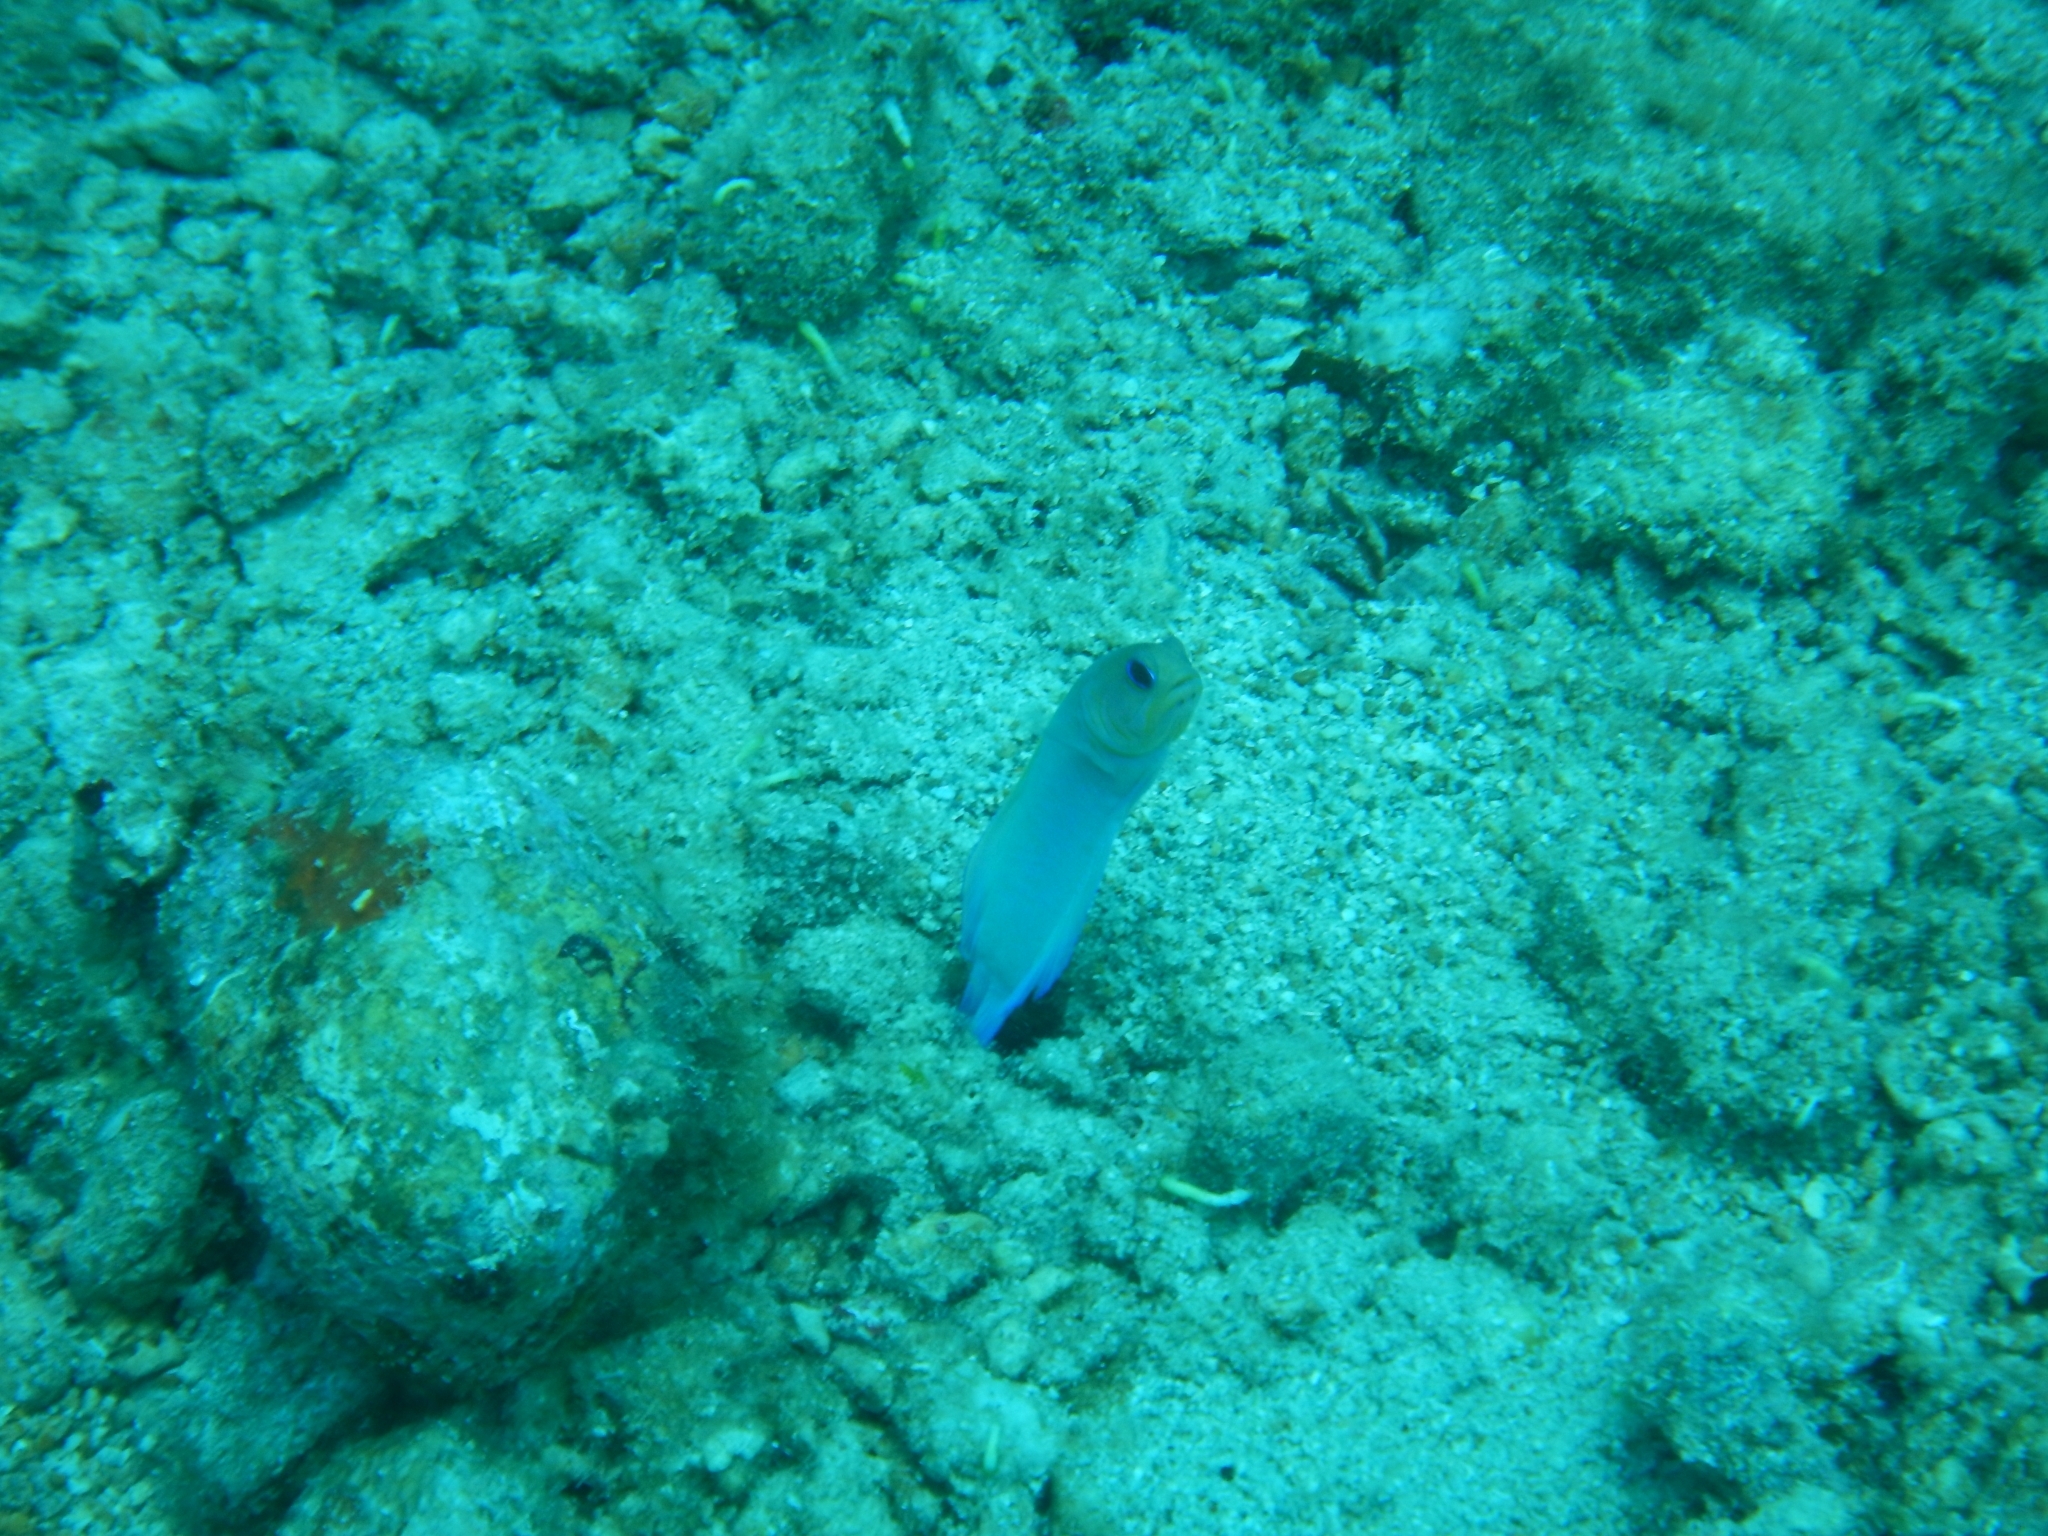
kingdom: Animalia
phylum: Chordata
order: Perciformes
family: Opistognathidae
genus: Opistognathus
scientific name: Opistognathus aurifrons
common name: Yellowhead jawfish
